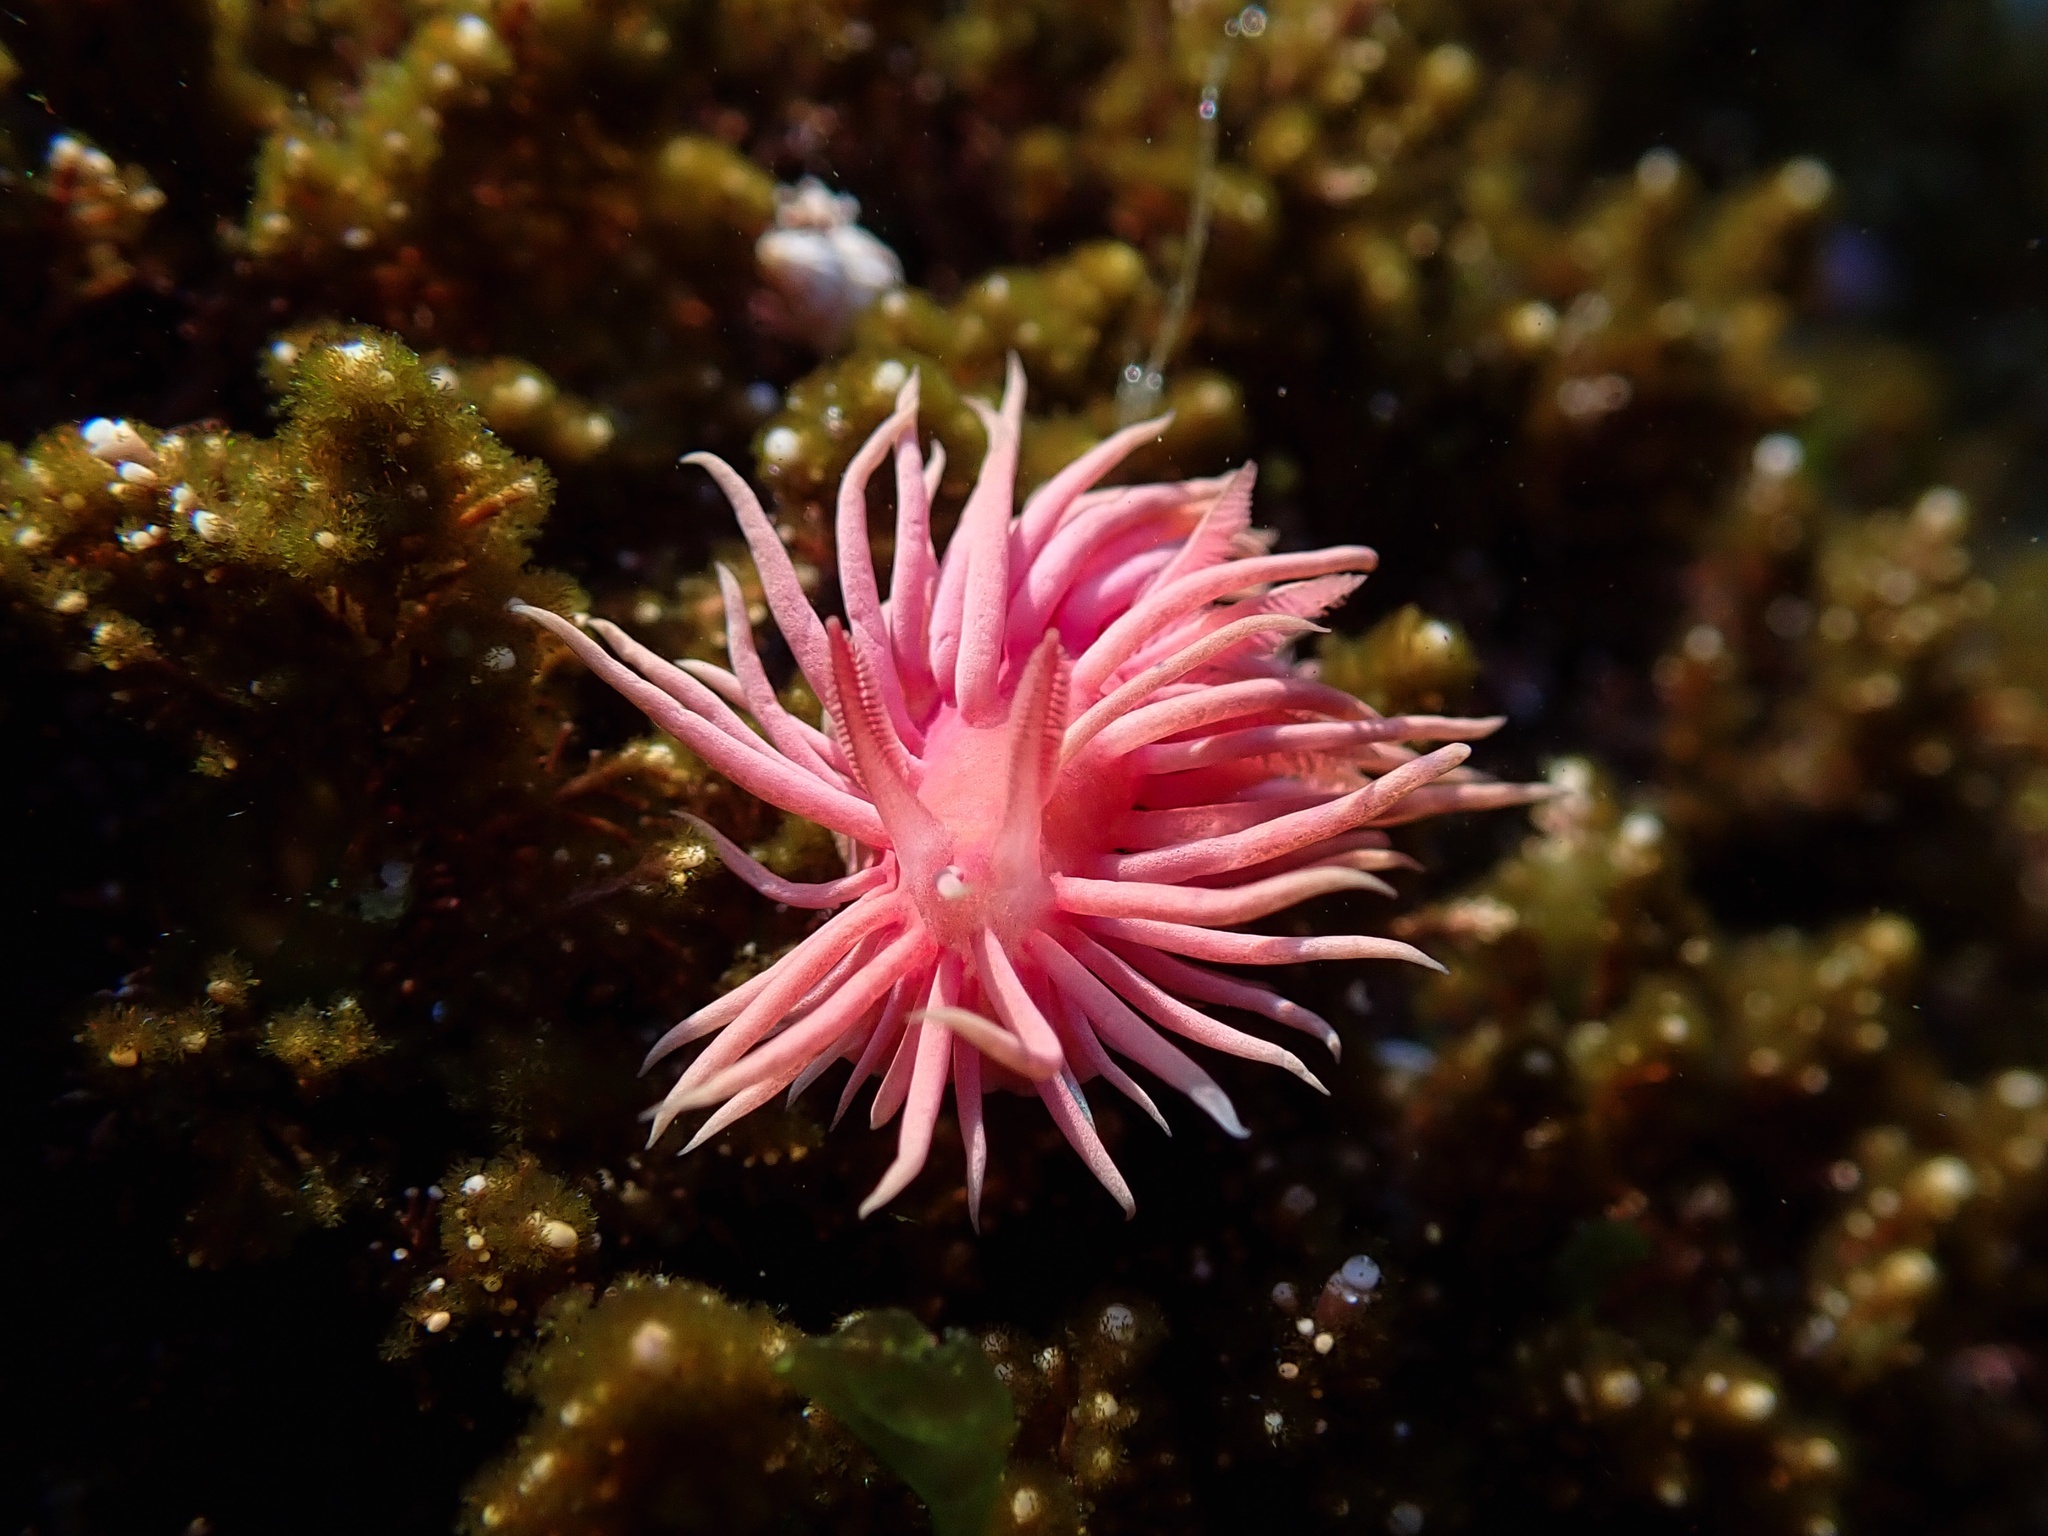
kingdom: Animalia
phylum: Mollusca
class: Gastropoda
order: Nudibranchia
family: Goniodorididae
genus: Okenia
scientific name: Okenia
